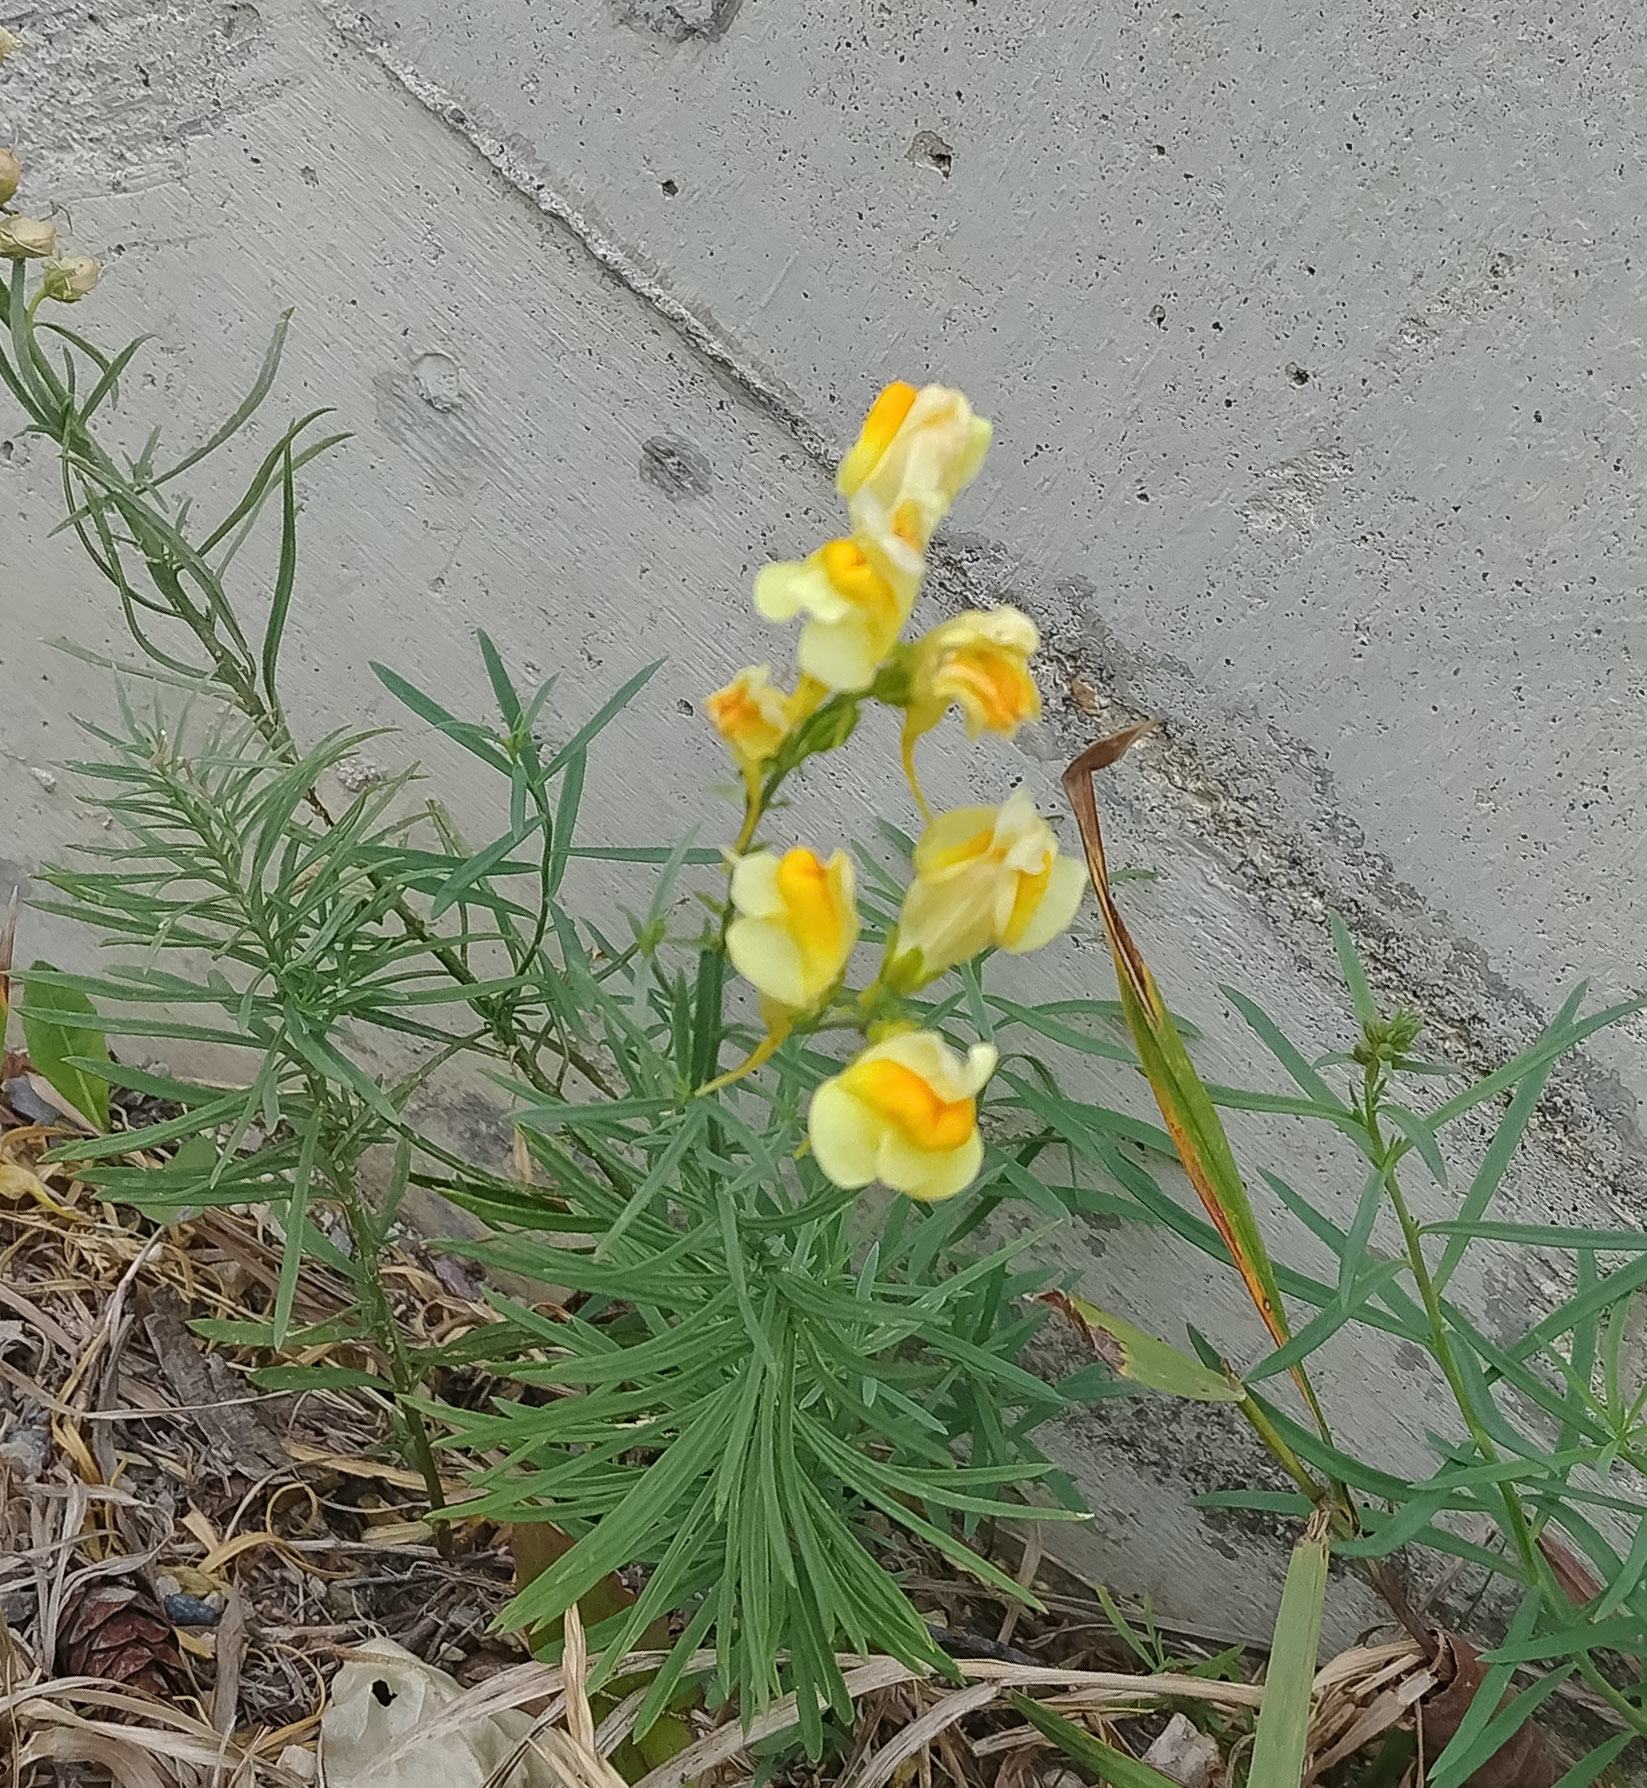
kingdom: Plantae
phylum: Tracheophyta
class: Magnoliopsida
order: Lamiales
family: Plantaginaceae
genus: Linaria
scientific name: Linaria vulgaris
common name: Butter and eggs
